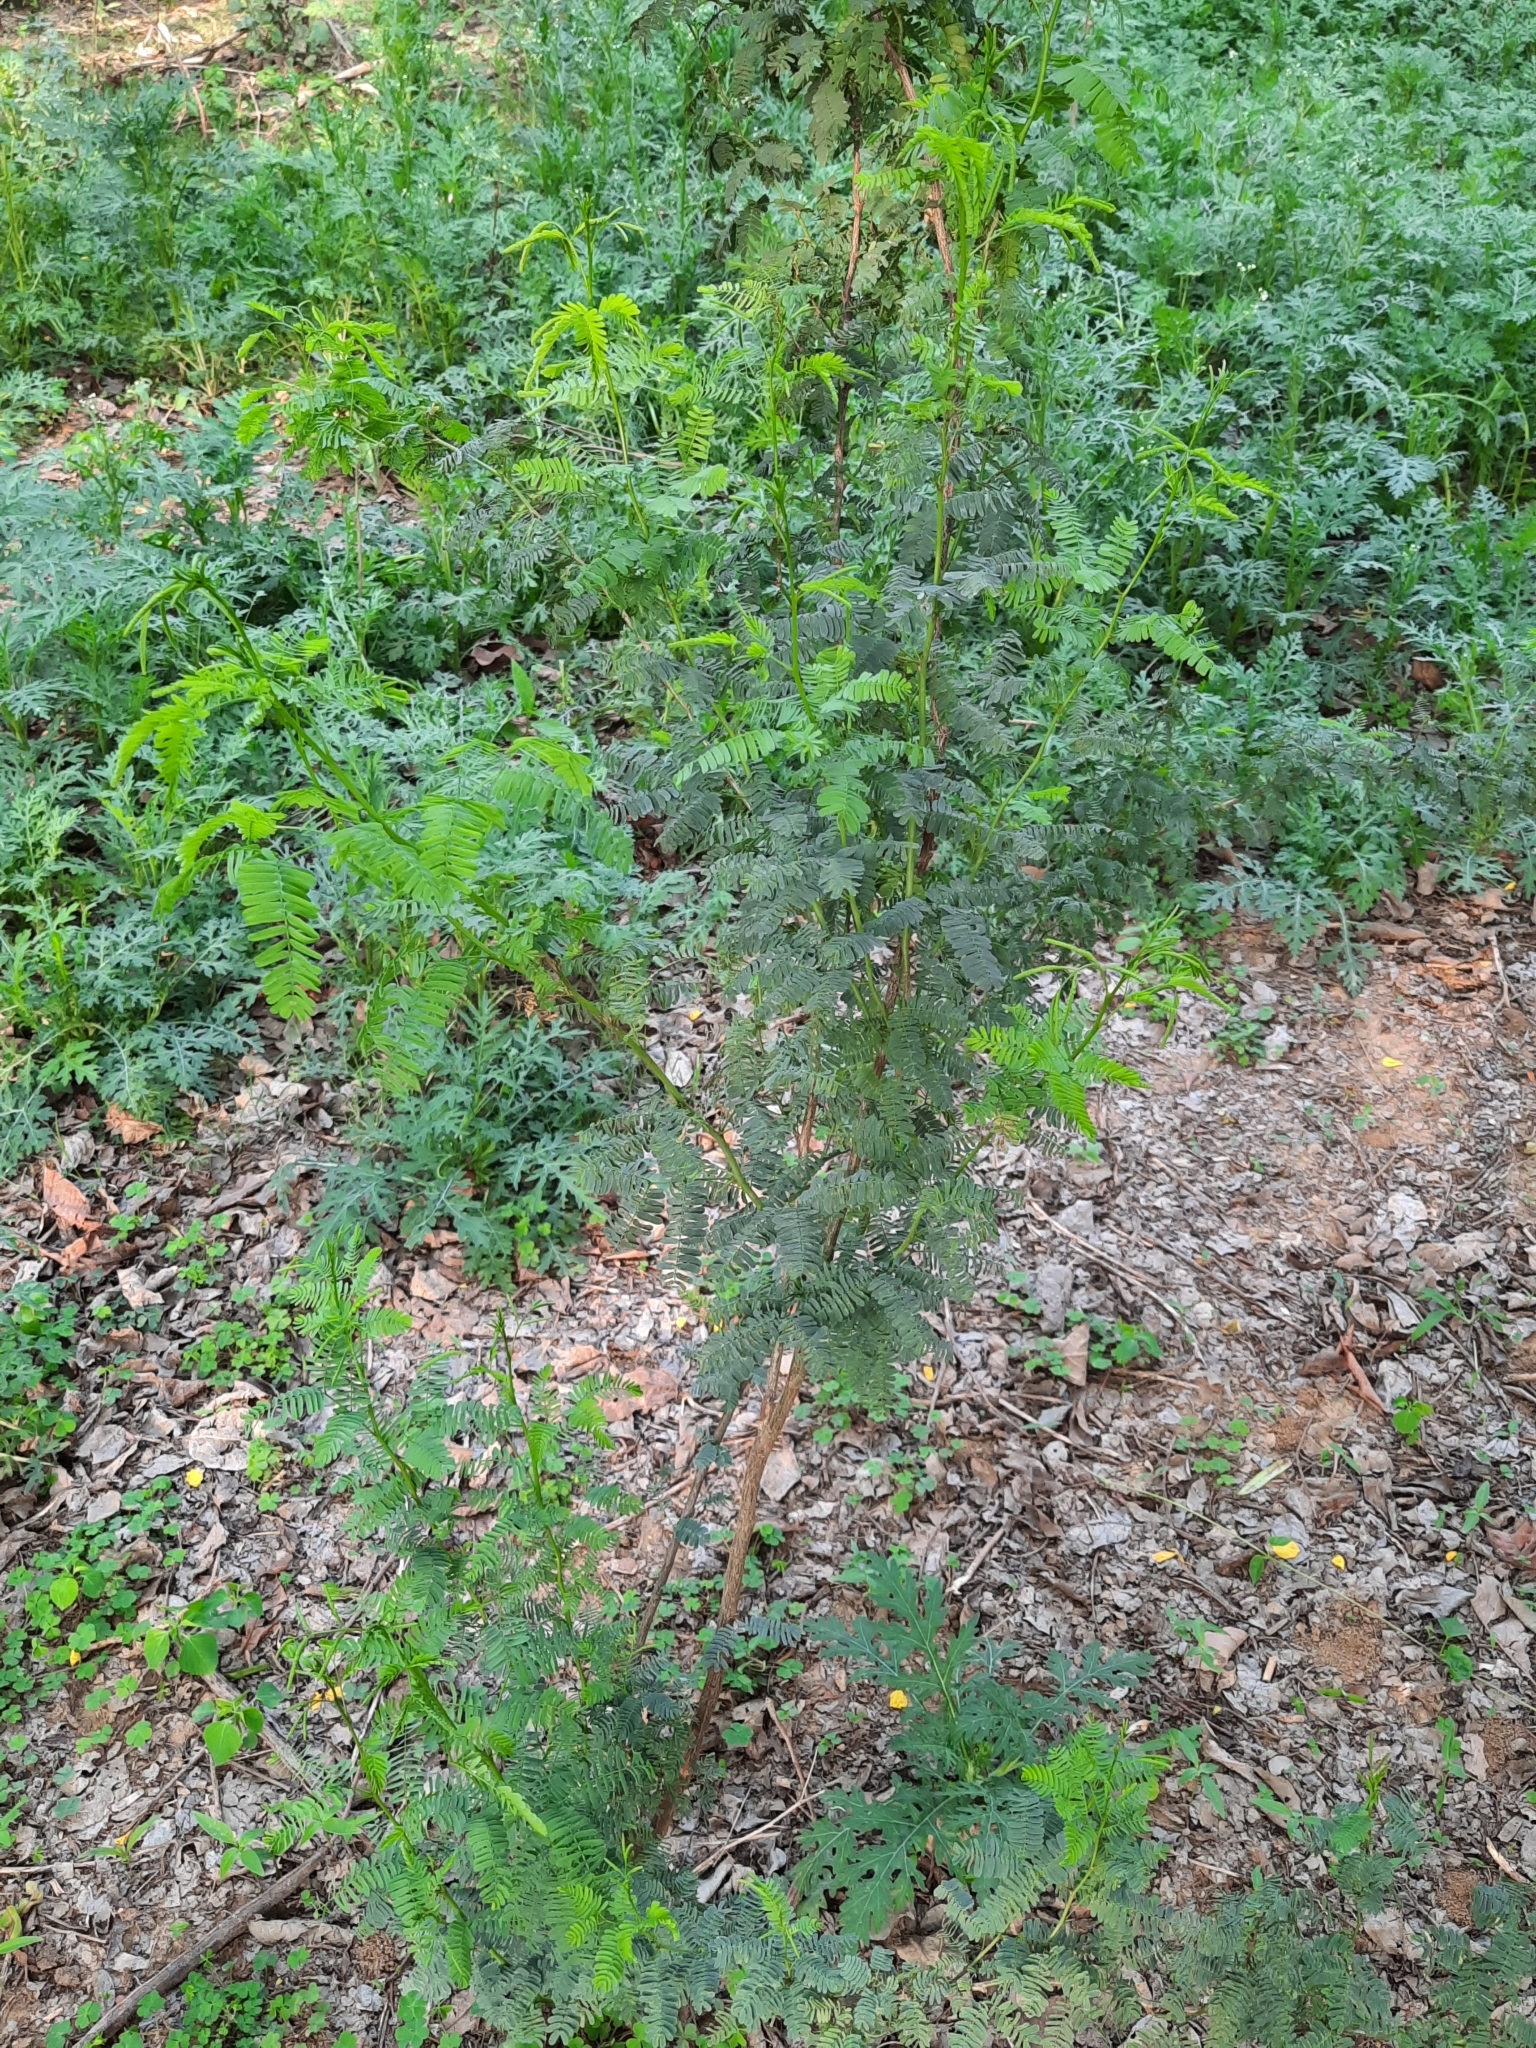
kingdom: Plantae
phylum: Tracheophyta
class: Magnoliopsida
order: Fabales
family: Fabaceae
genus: Prosopis
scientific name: Prosopis juliflora
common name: Mesquite
